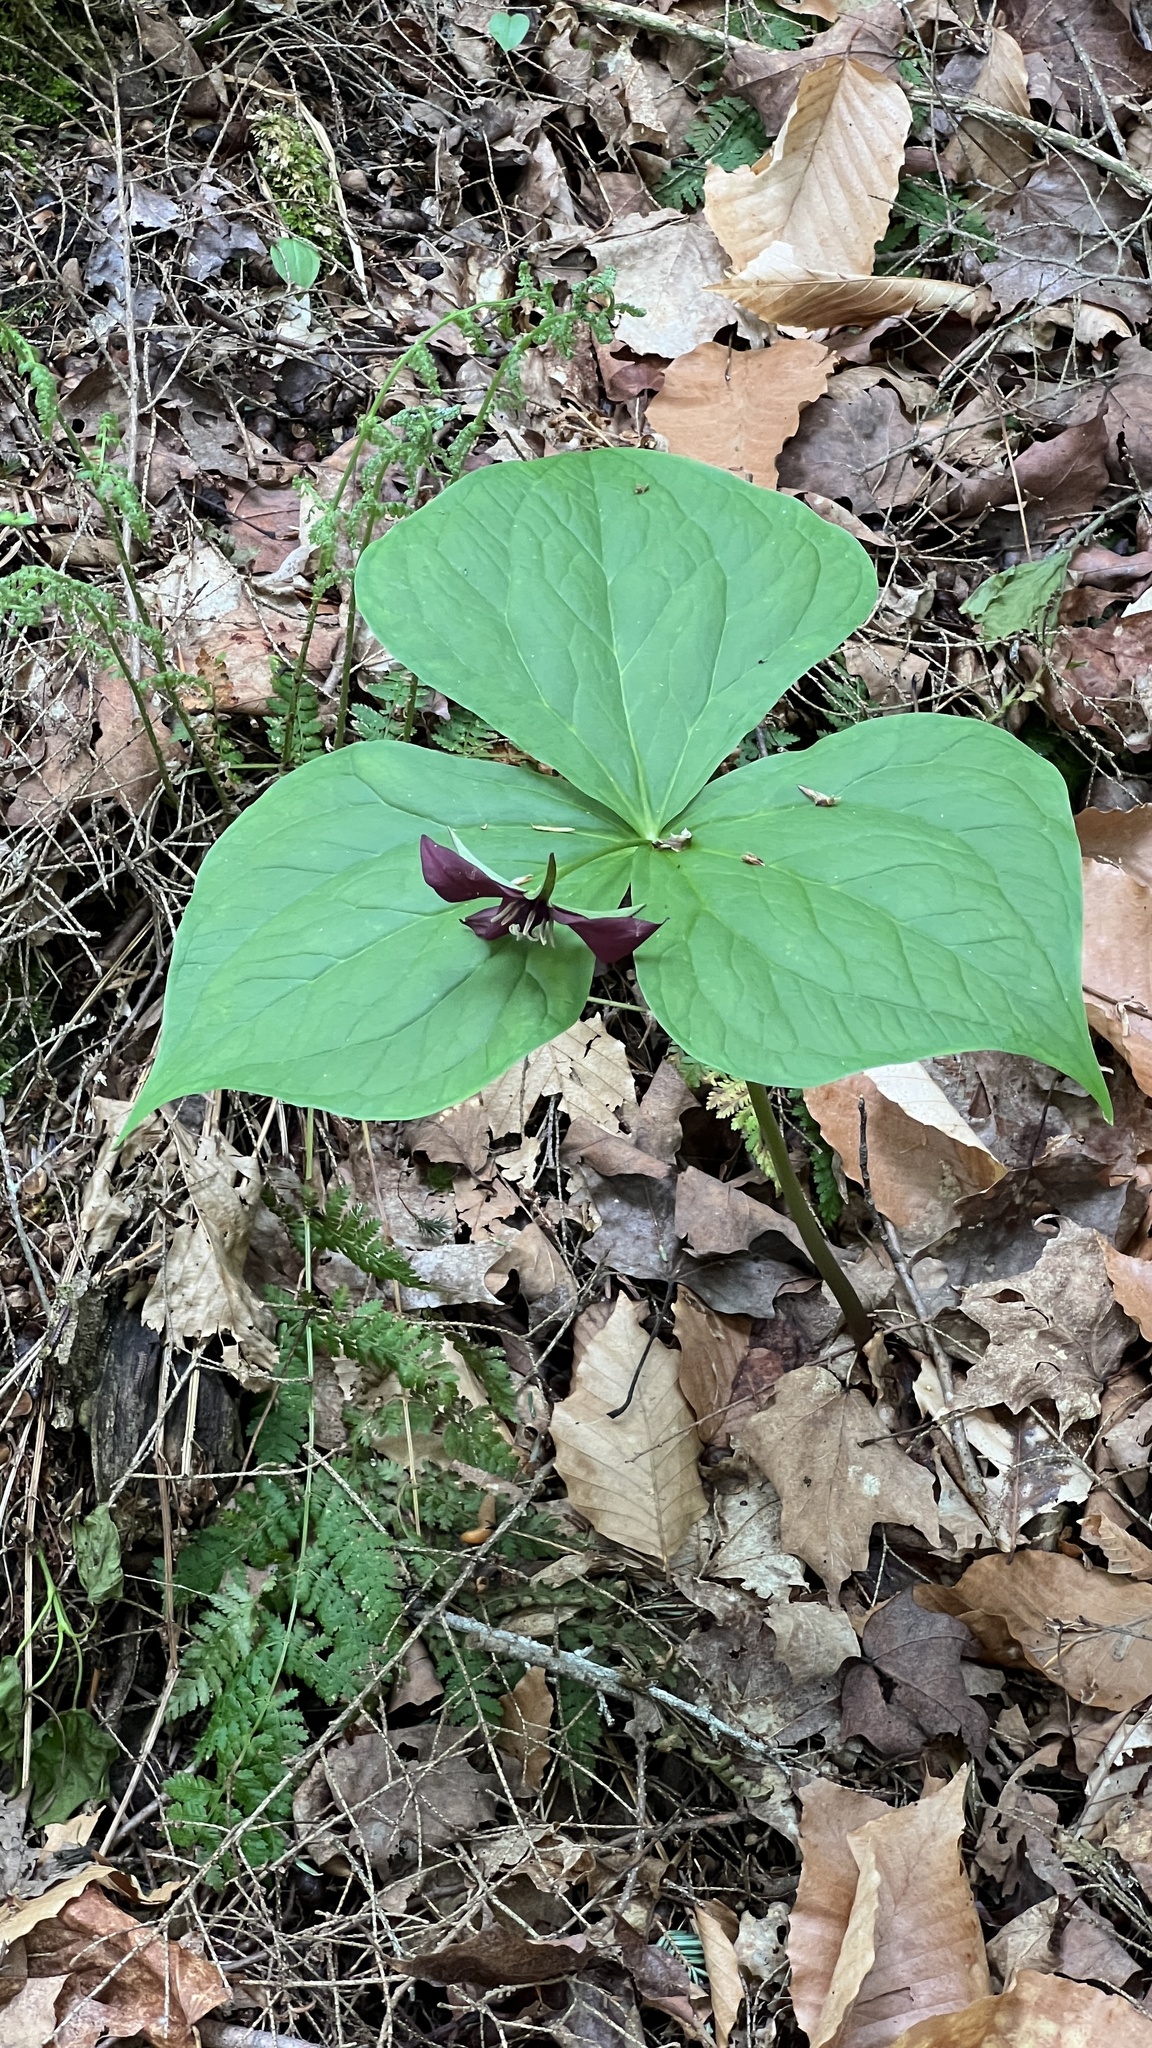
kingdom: Plantae
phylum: Tracheophyta
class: Liliopsida
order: Liliales
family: Melanthiaceae
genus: Trillium
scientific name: Trillium erectum
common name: Purple trillium
